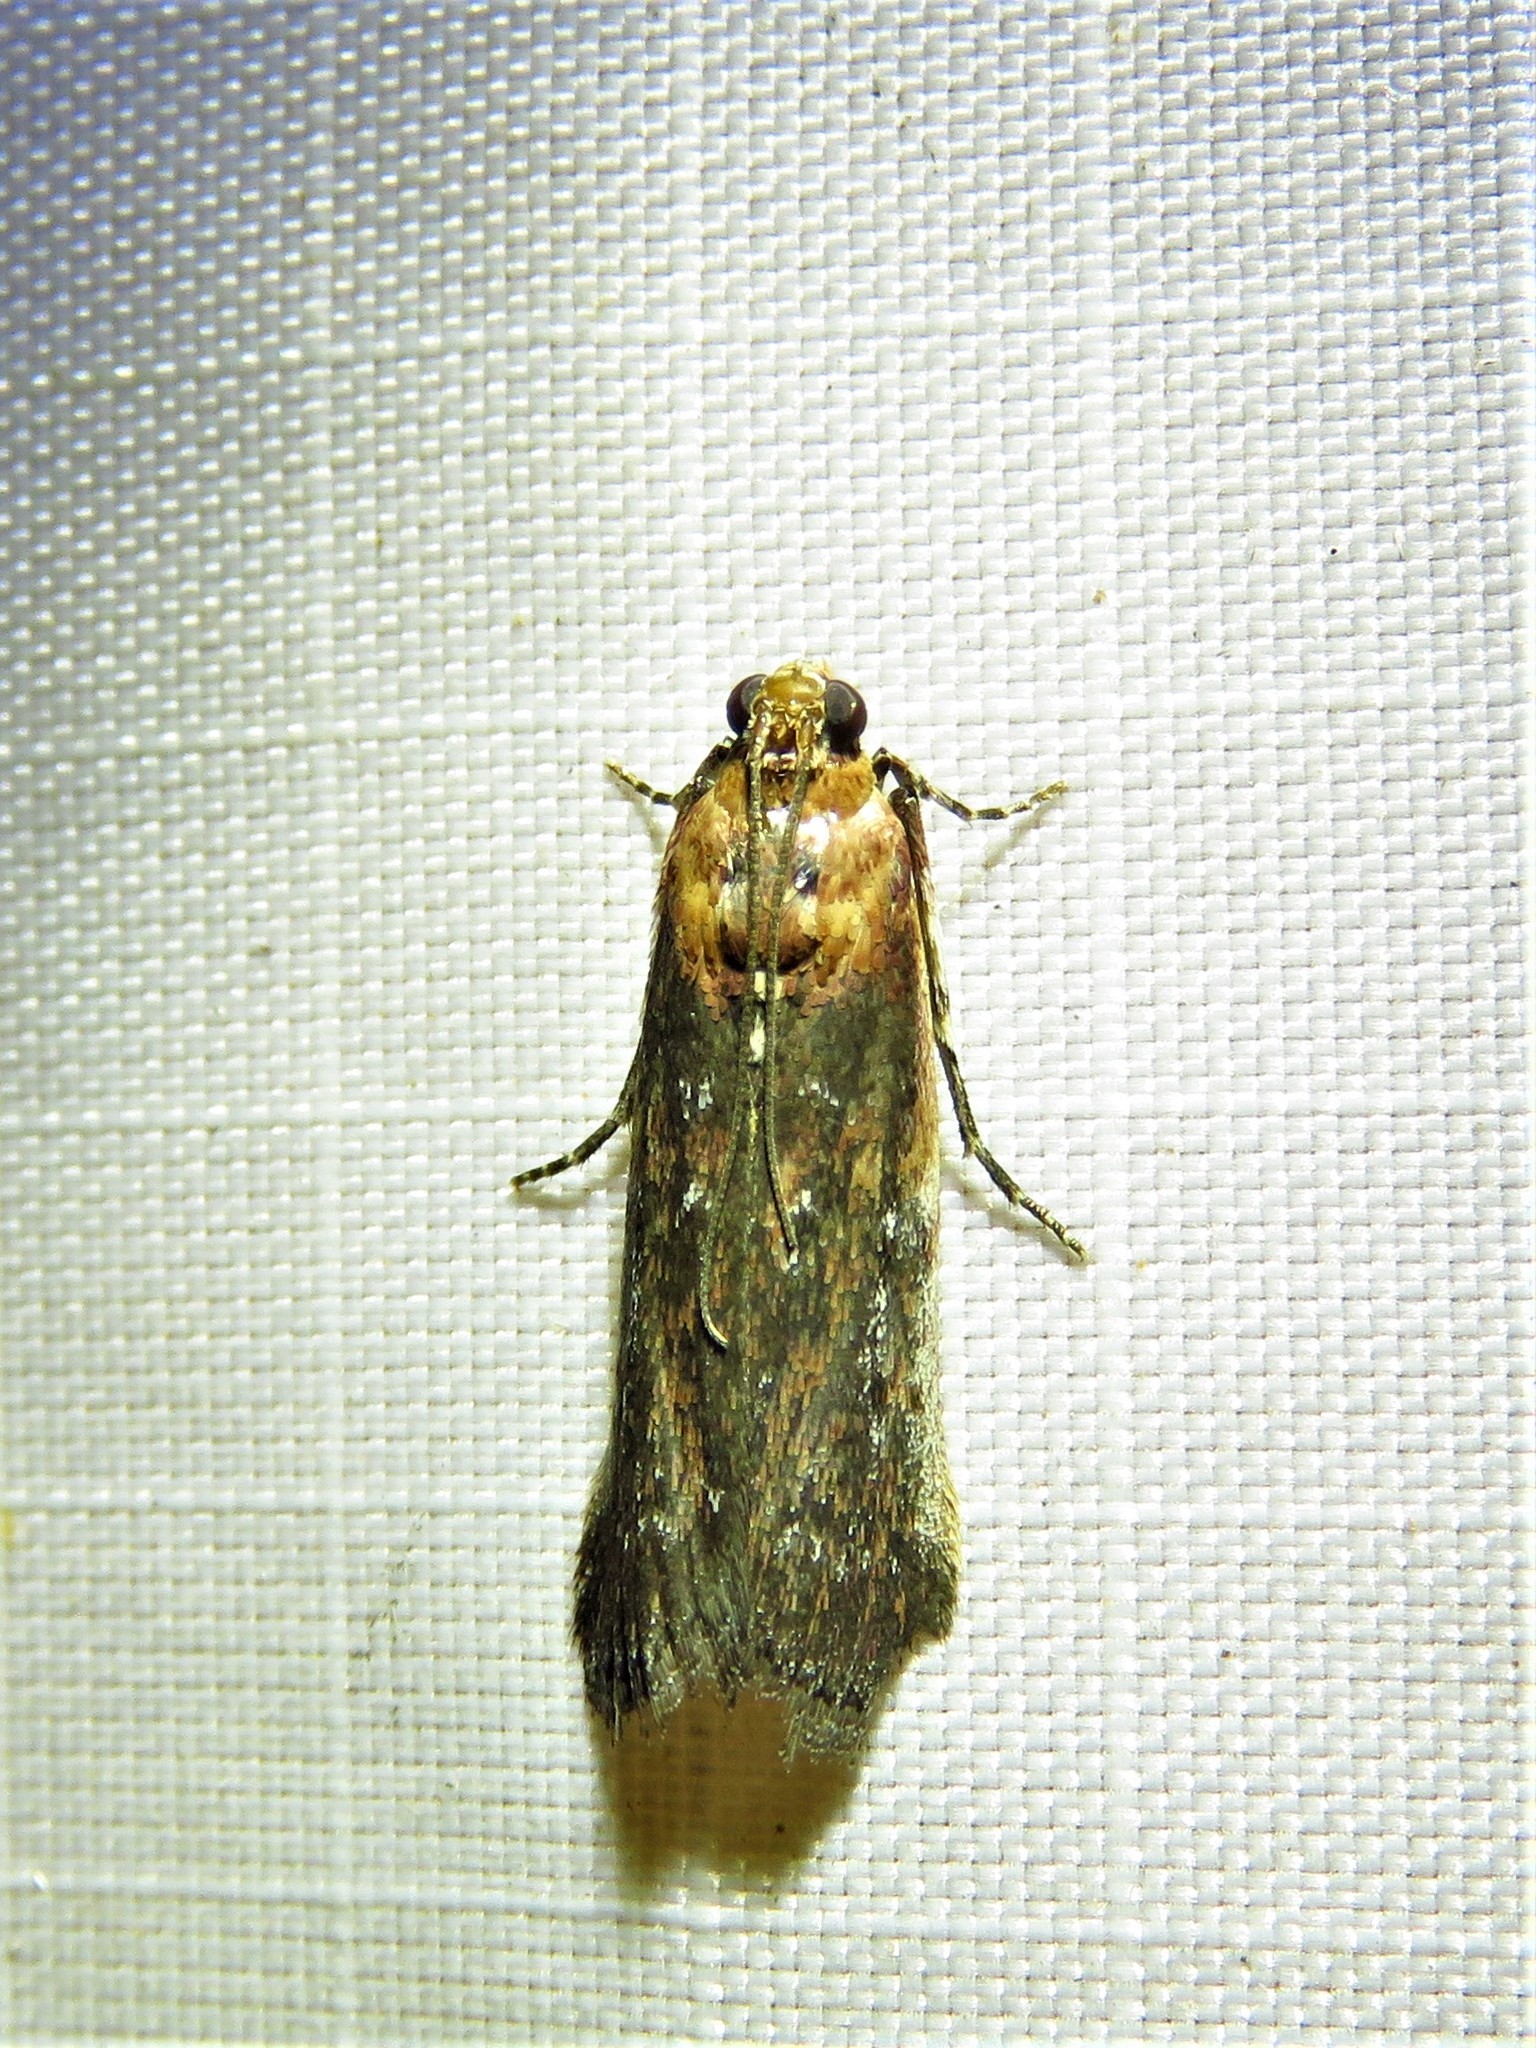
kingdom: Animalia
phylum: Arthropoda
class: Insecta
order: Lepidoptera
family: Pyralidae
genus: Adelphia
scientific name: Adelphia petrella
